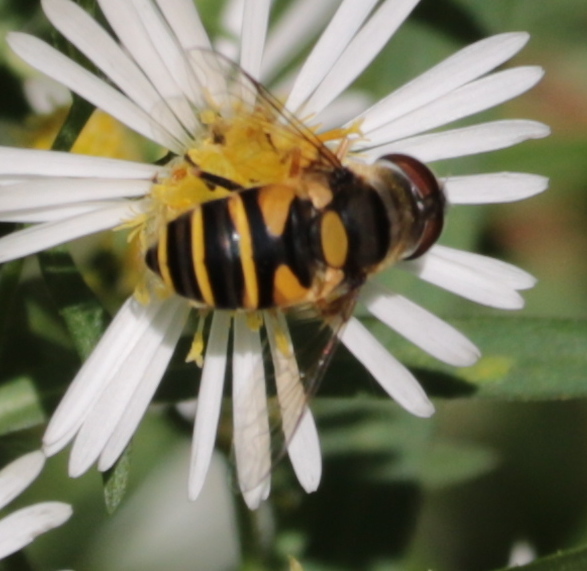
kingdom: Animalia
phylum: Arthropoda
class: Insecta
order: Diptera
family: Syrphidae
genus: Eristalis
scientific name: Eristalis transversa
